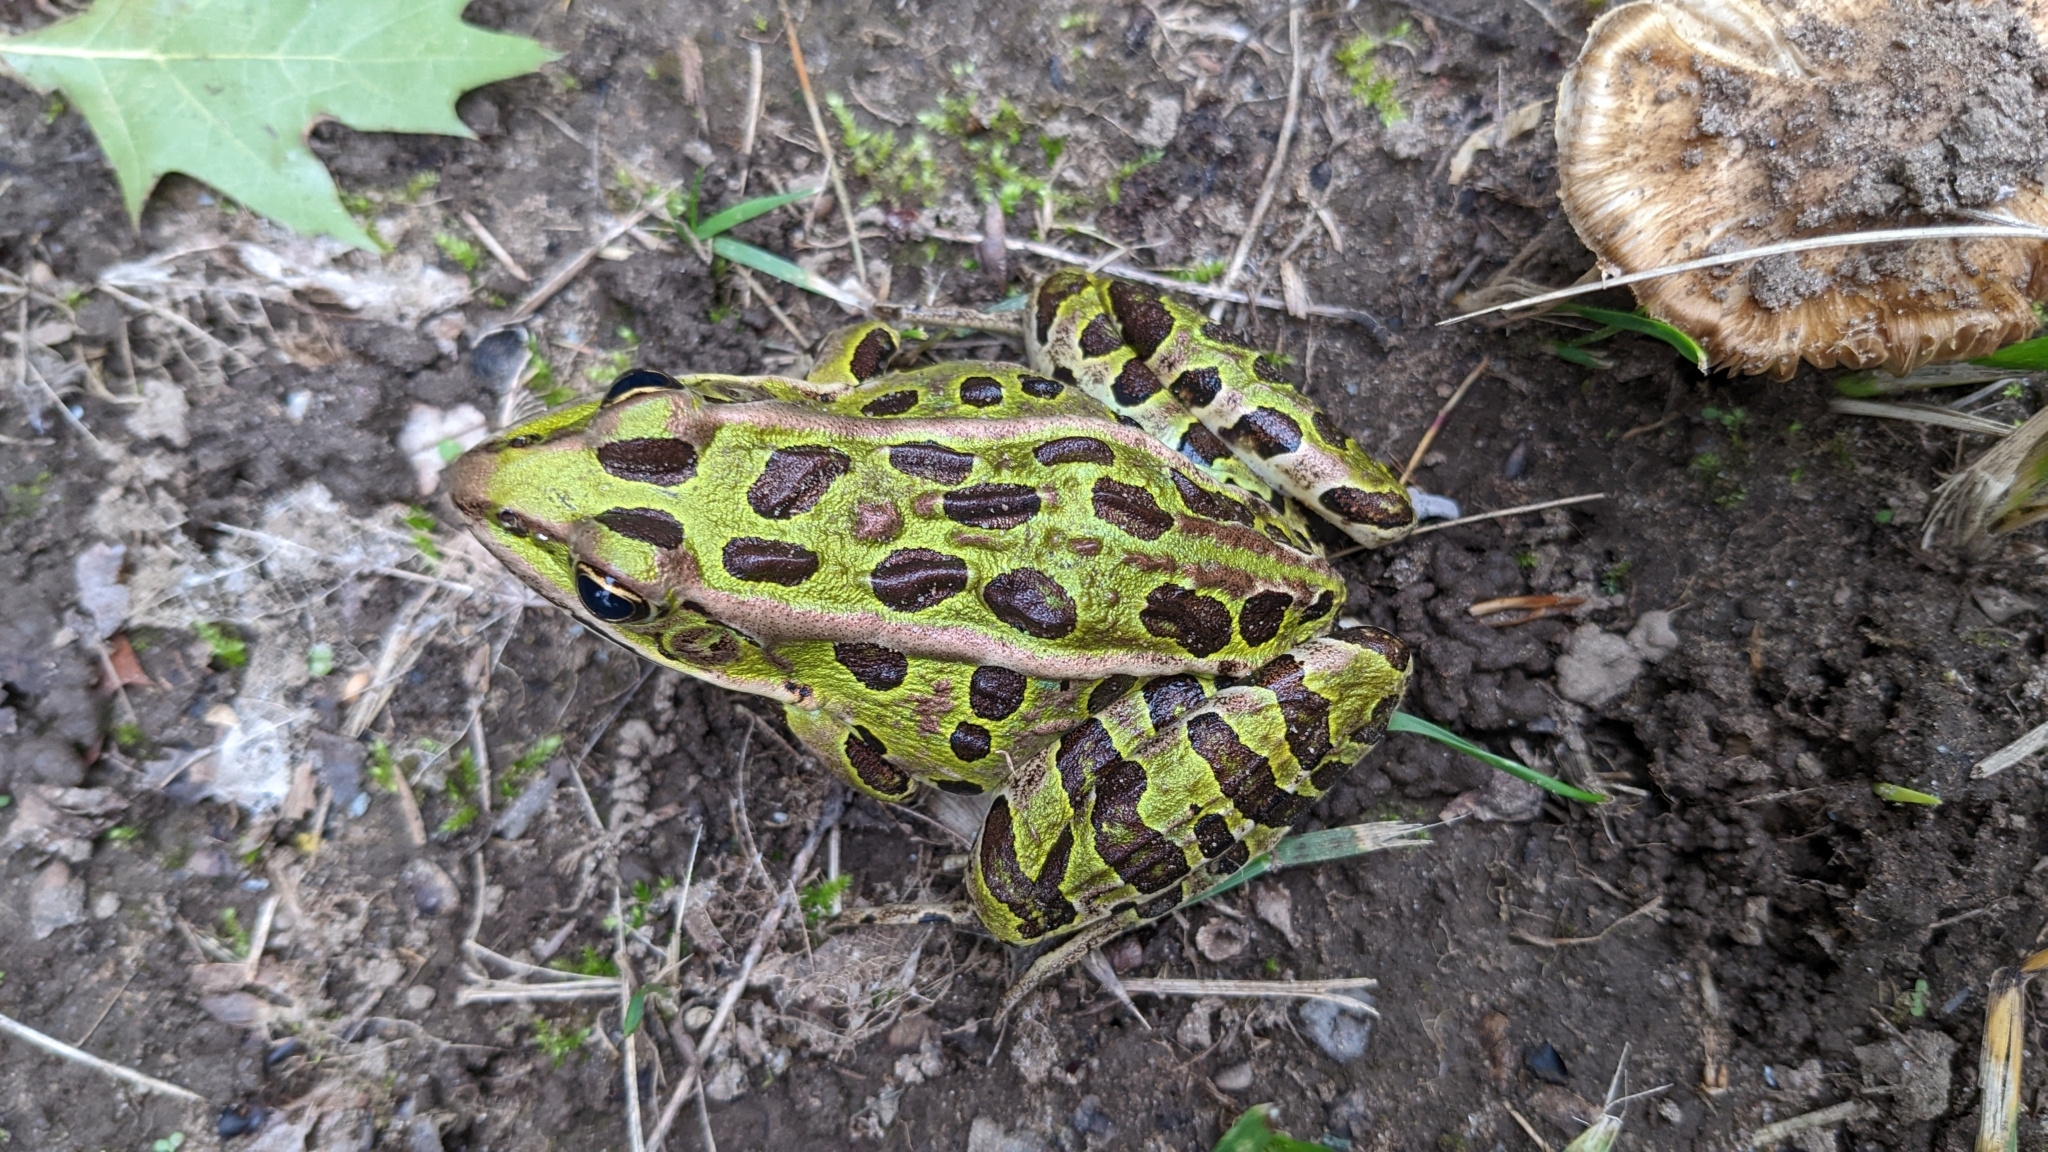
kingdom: Animalia
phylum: Chordata
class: Amphibia
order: Anura
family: Ranidae
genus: Lithobates
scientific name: Lithobates pipiens
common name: Northern leopard frog
